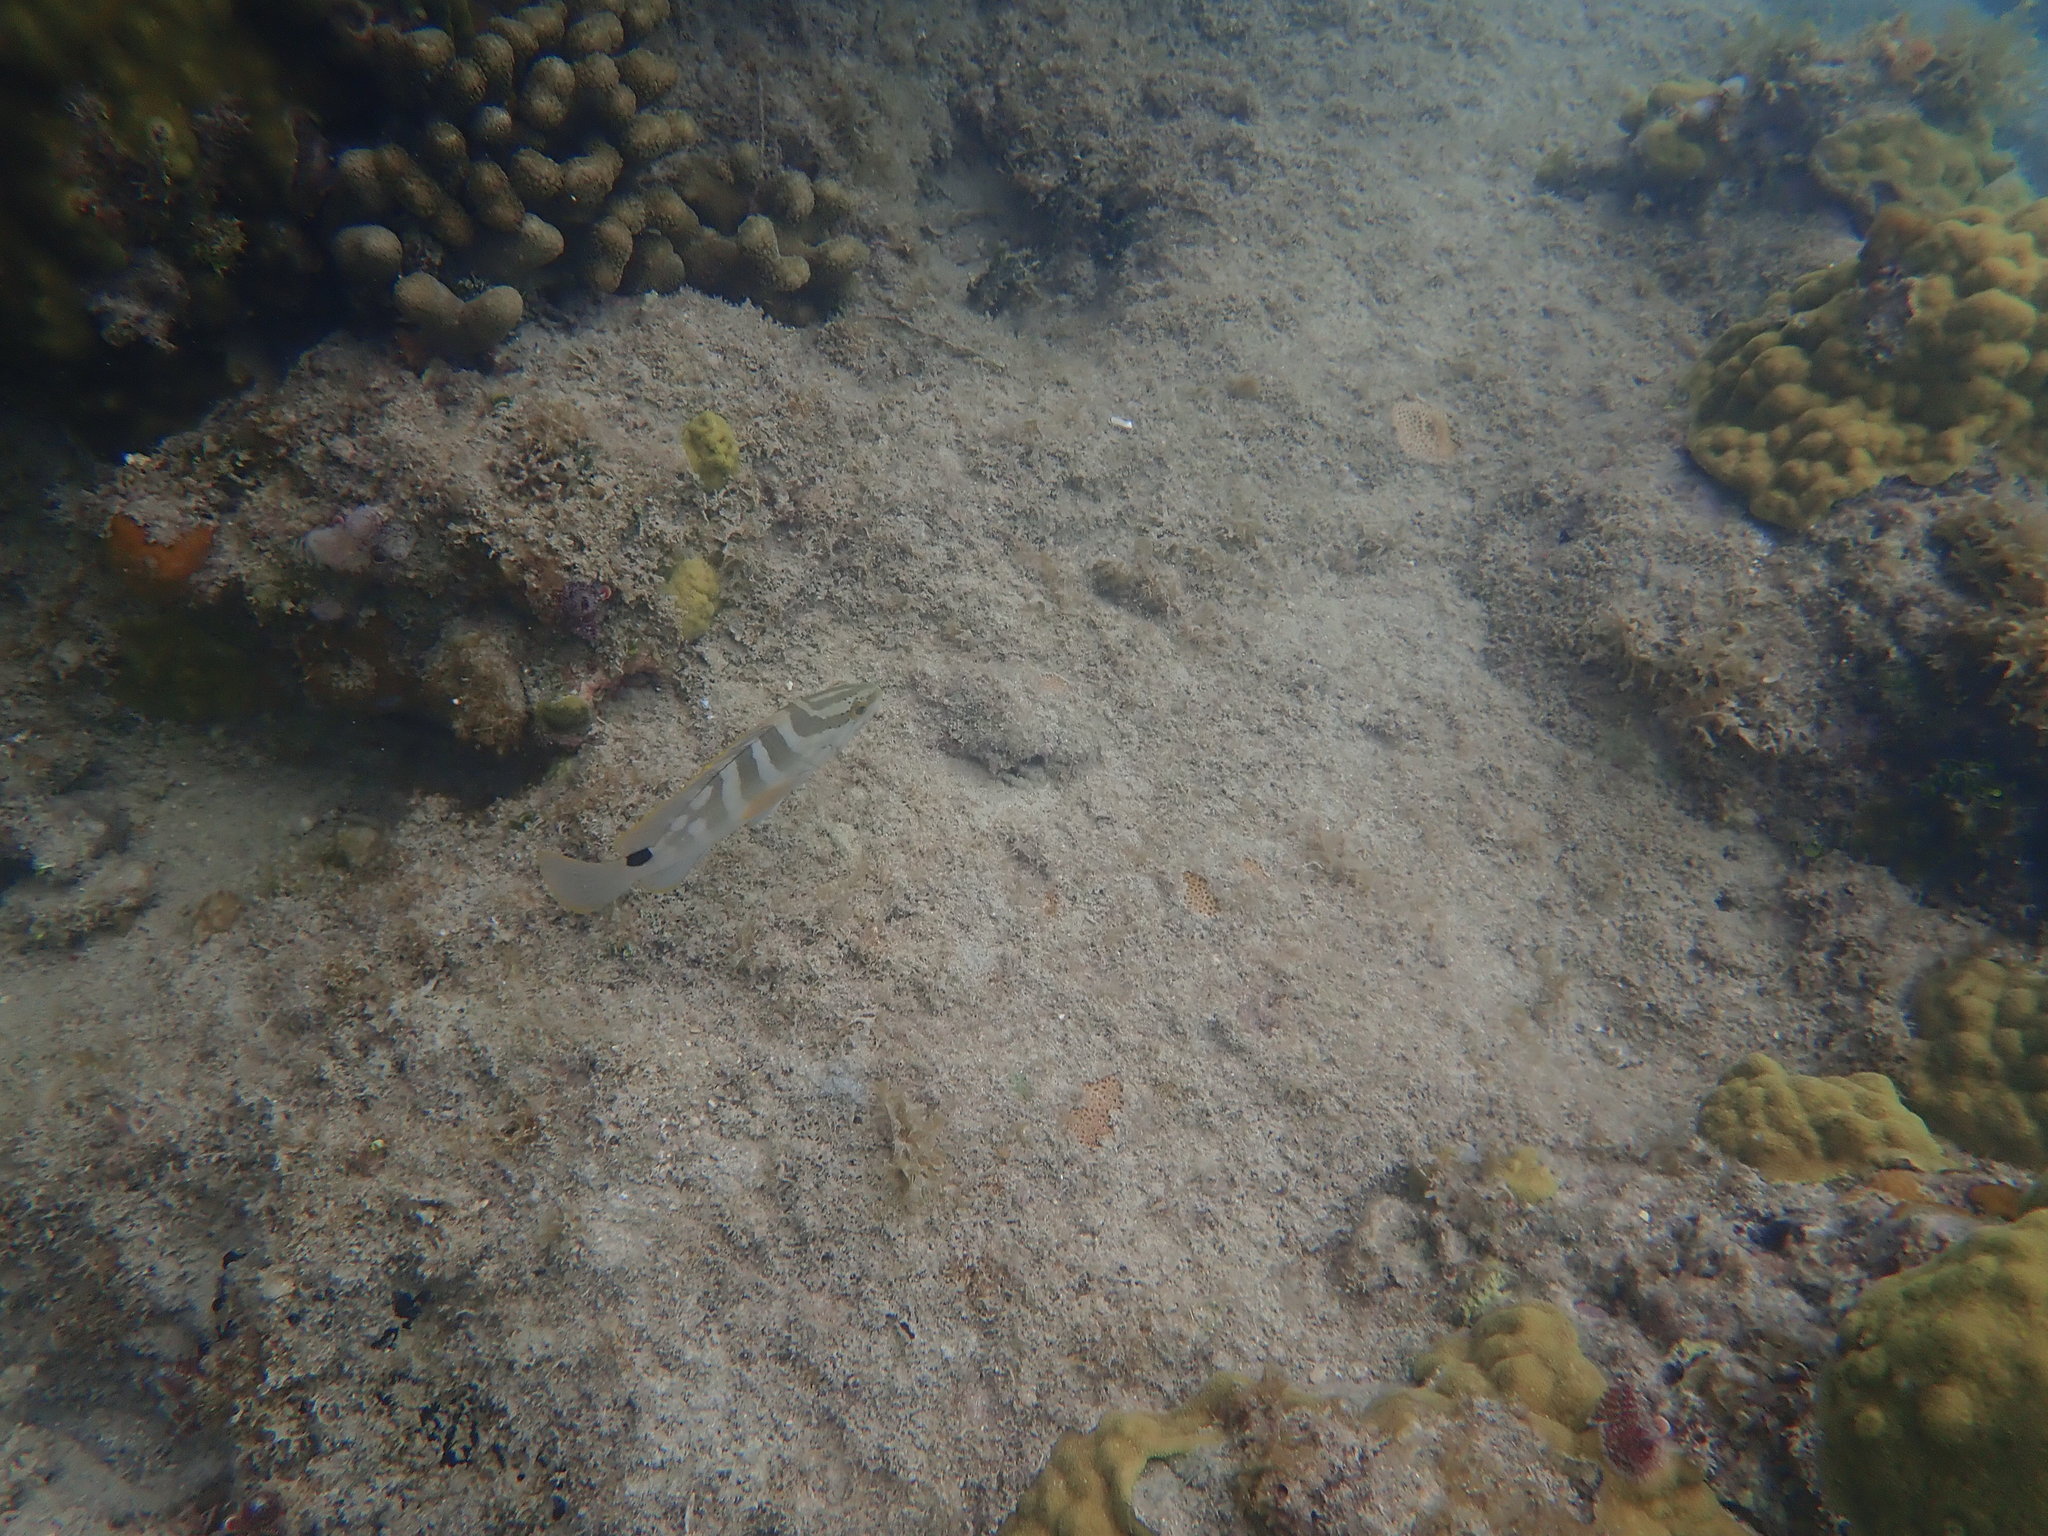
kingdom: Animalia
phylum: Chordata
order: Perciformes
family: Serranidae
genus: Epinephelus
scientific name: Epinephelus striatus
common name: Nassau grouper
